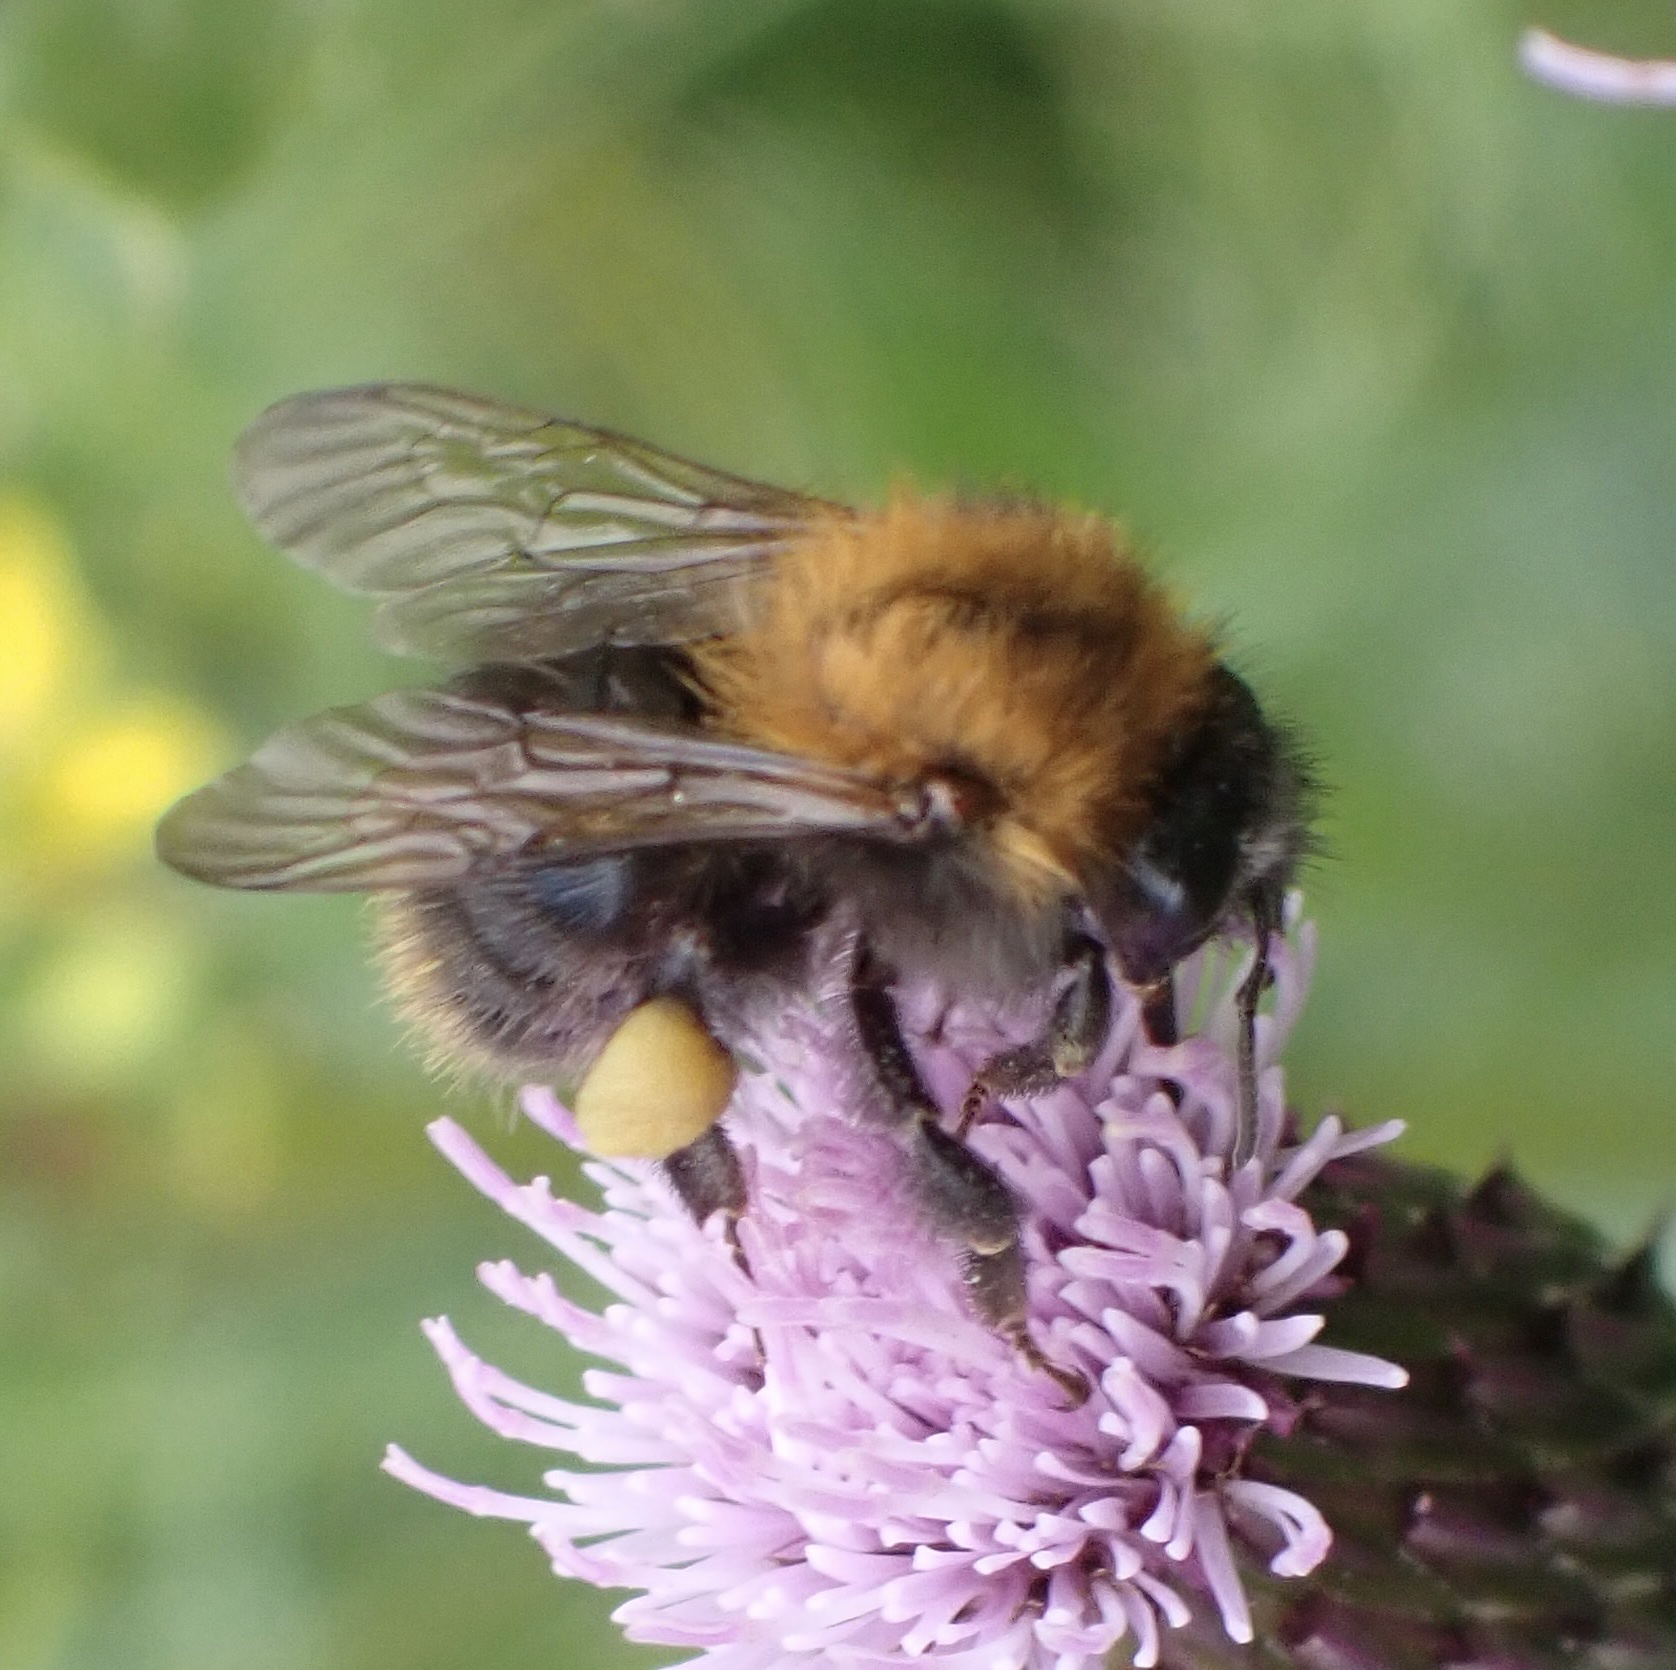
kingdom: Animalia
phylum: Arthropoda
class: Insecta
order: Hymenoptera
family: Apidae
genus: Bombus
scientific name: Bombus pascuorum
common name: Common carder bee
